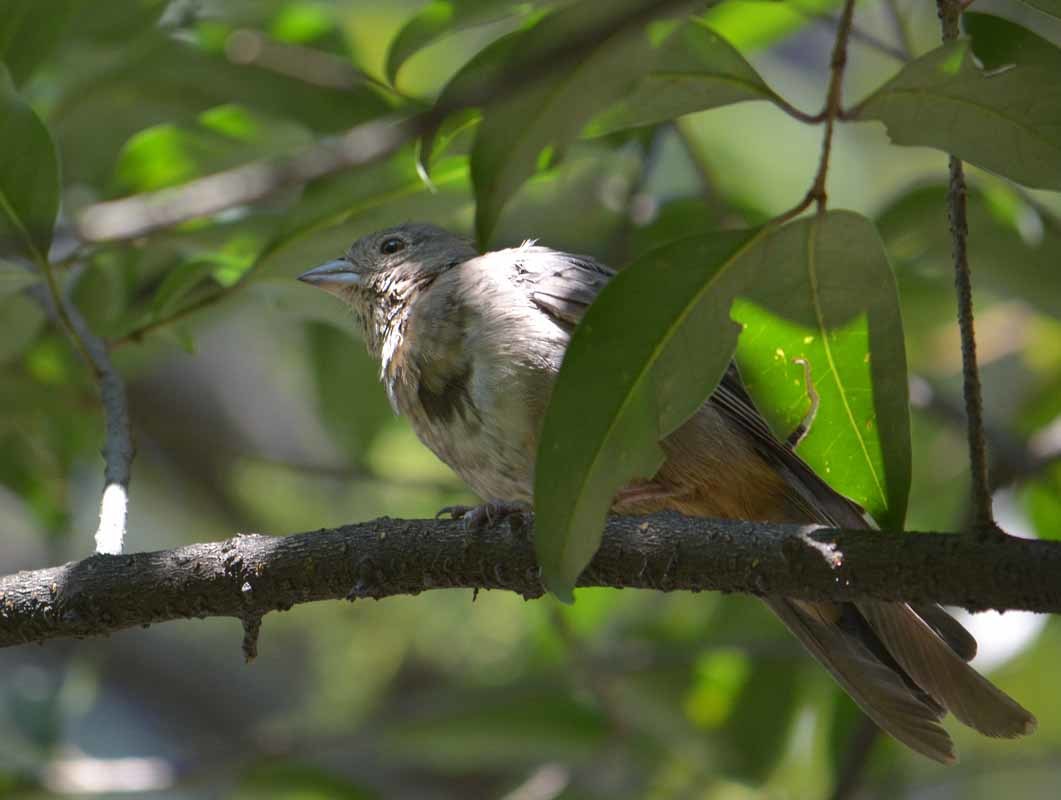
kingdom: Animalia
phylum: Chordata
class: Aves
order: Passeriformes
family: Passerellidae
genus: Melozone
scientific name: Melozone fusca
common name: Canyon towhee
